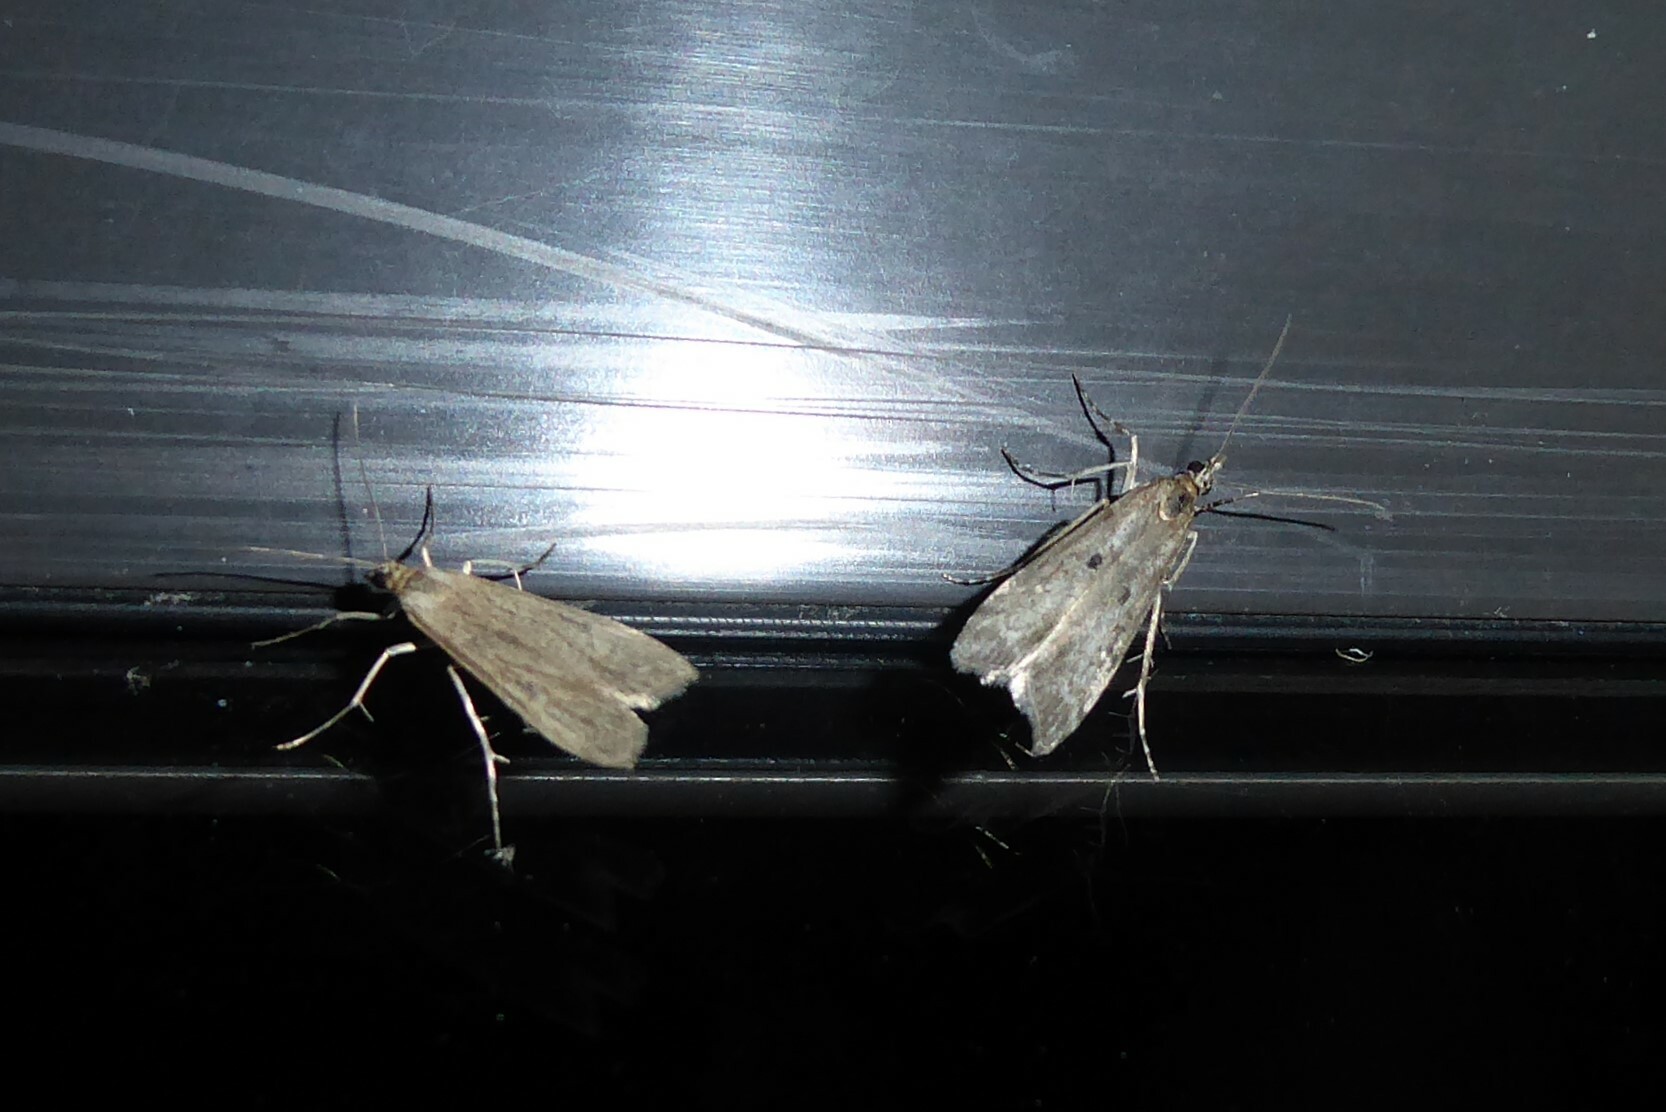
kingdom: Animalia
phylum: Arthropoda
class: Insecta
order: Lepidoptera
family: Crambidae
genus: Eudonia
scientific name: Eudonia leptalea
